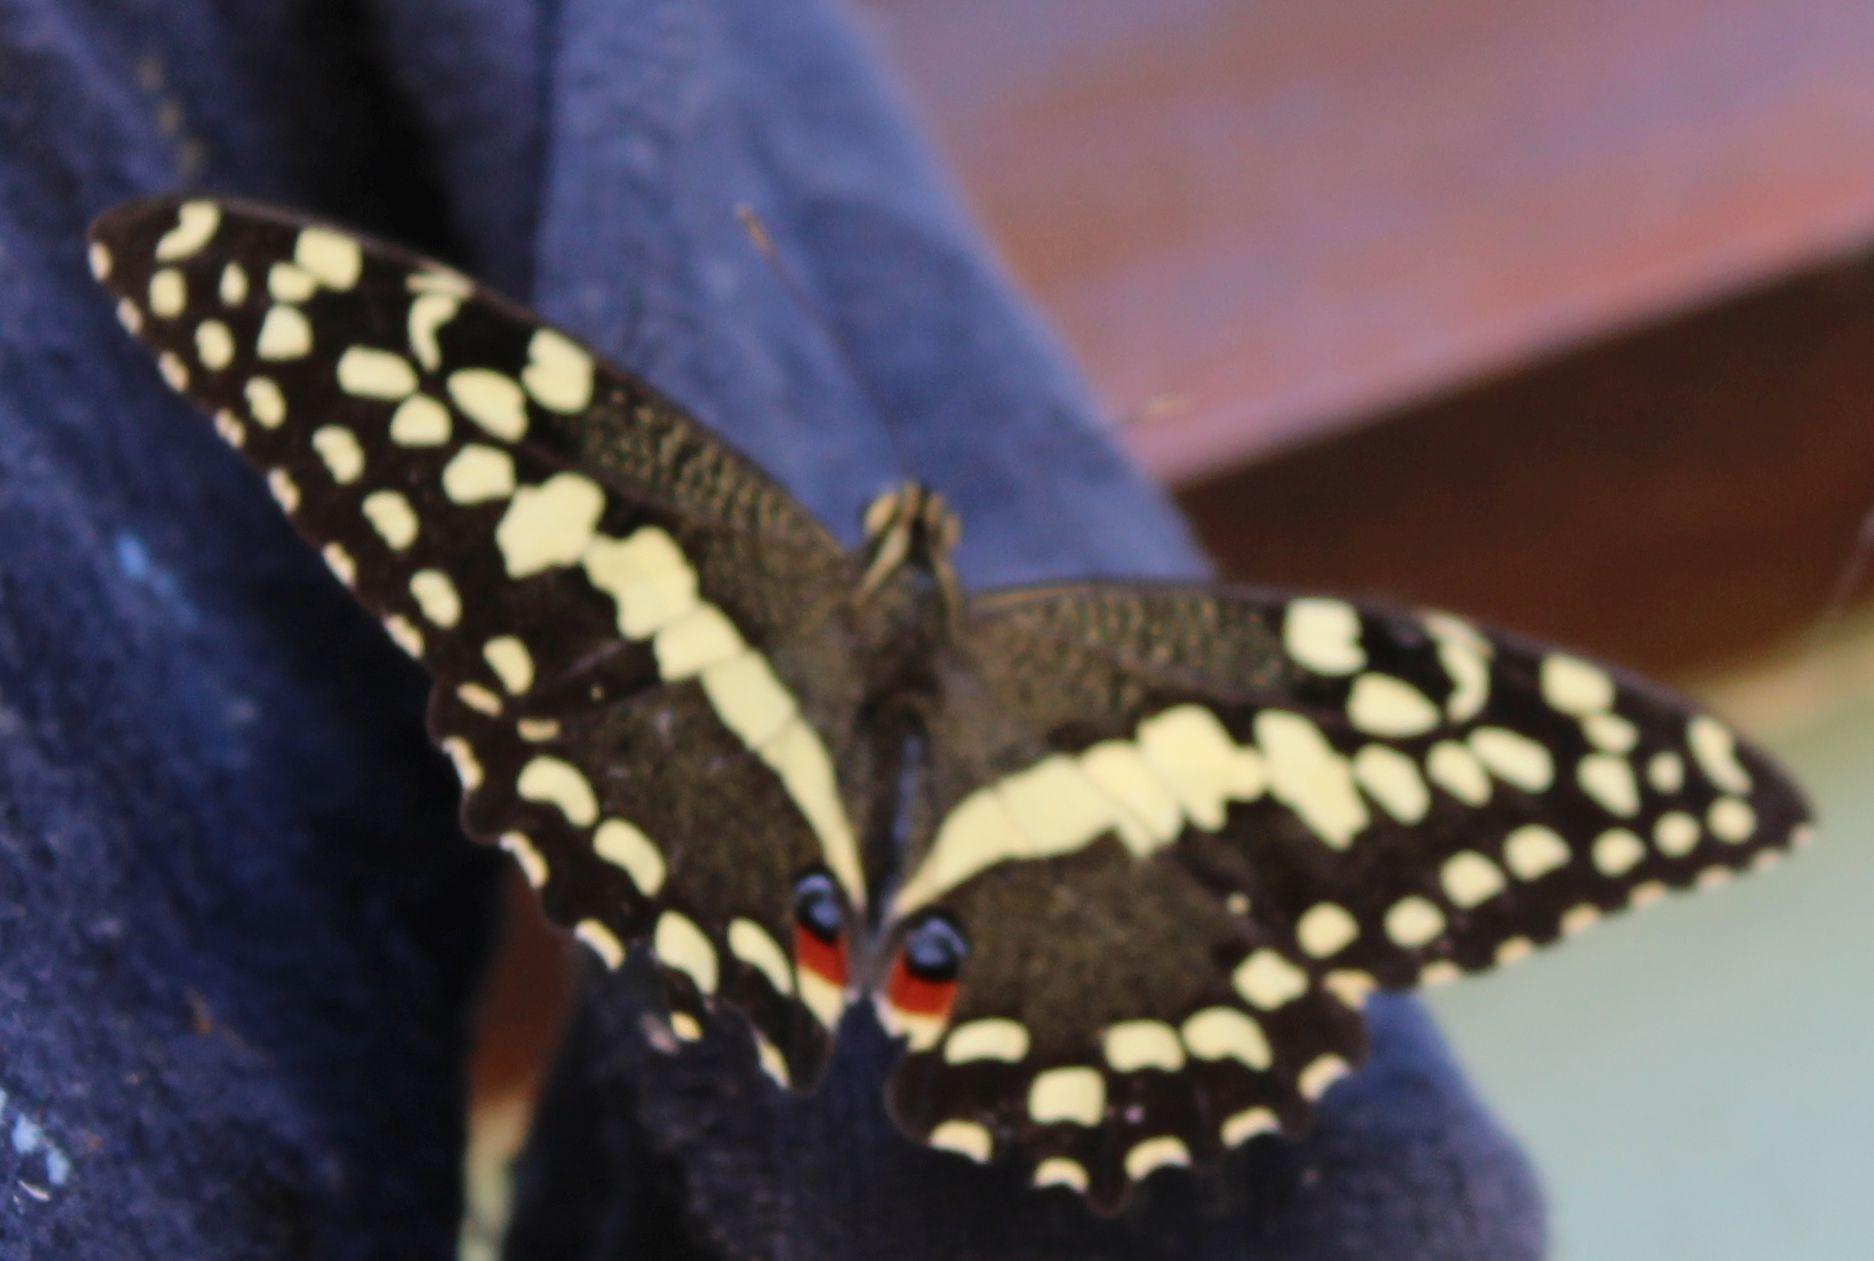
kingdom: Animalia
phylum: Arthropoda
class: Insecta
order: Lepidoptera
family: Papilionidae
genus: Papilio
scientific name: Papilio demodocus
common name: Christmas butterfly
